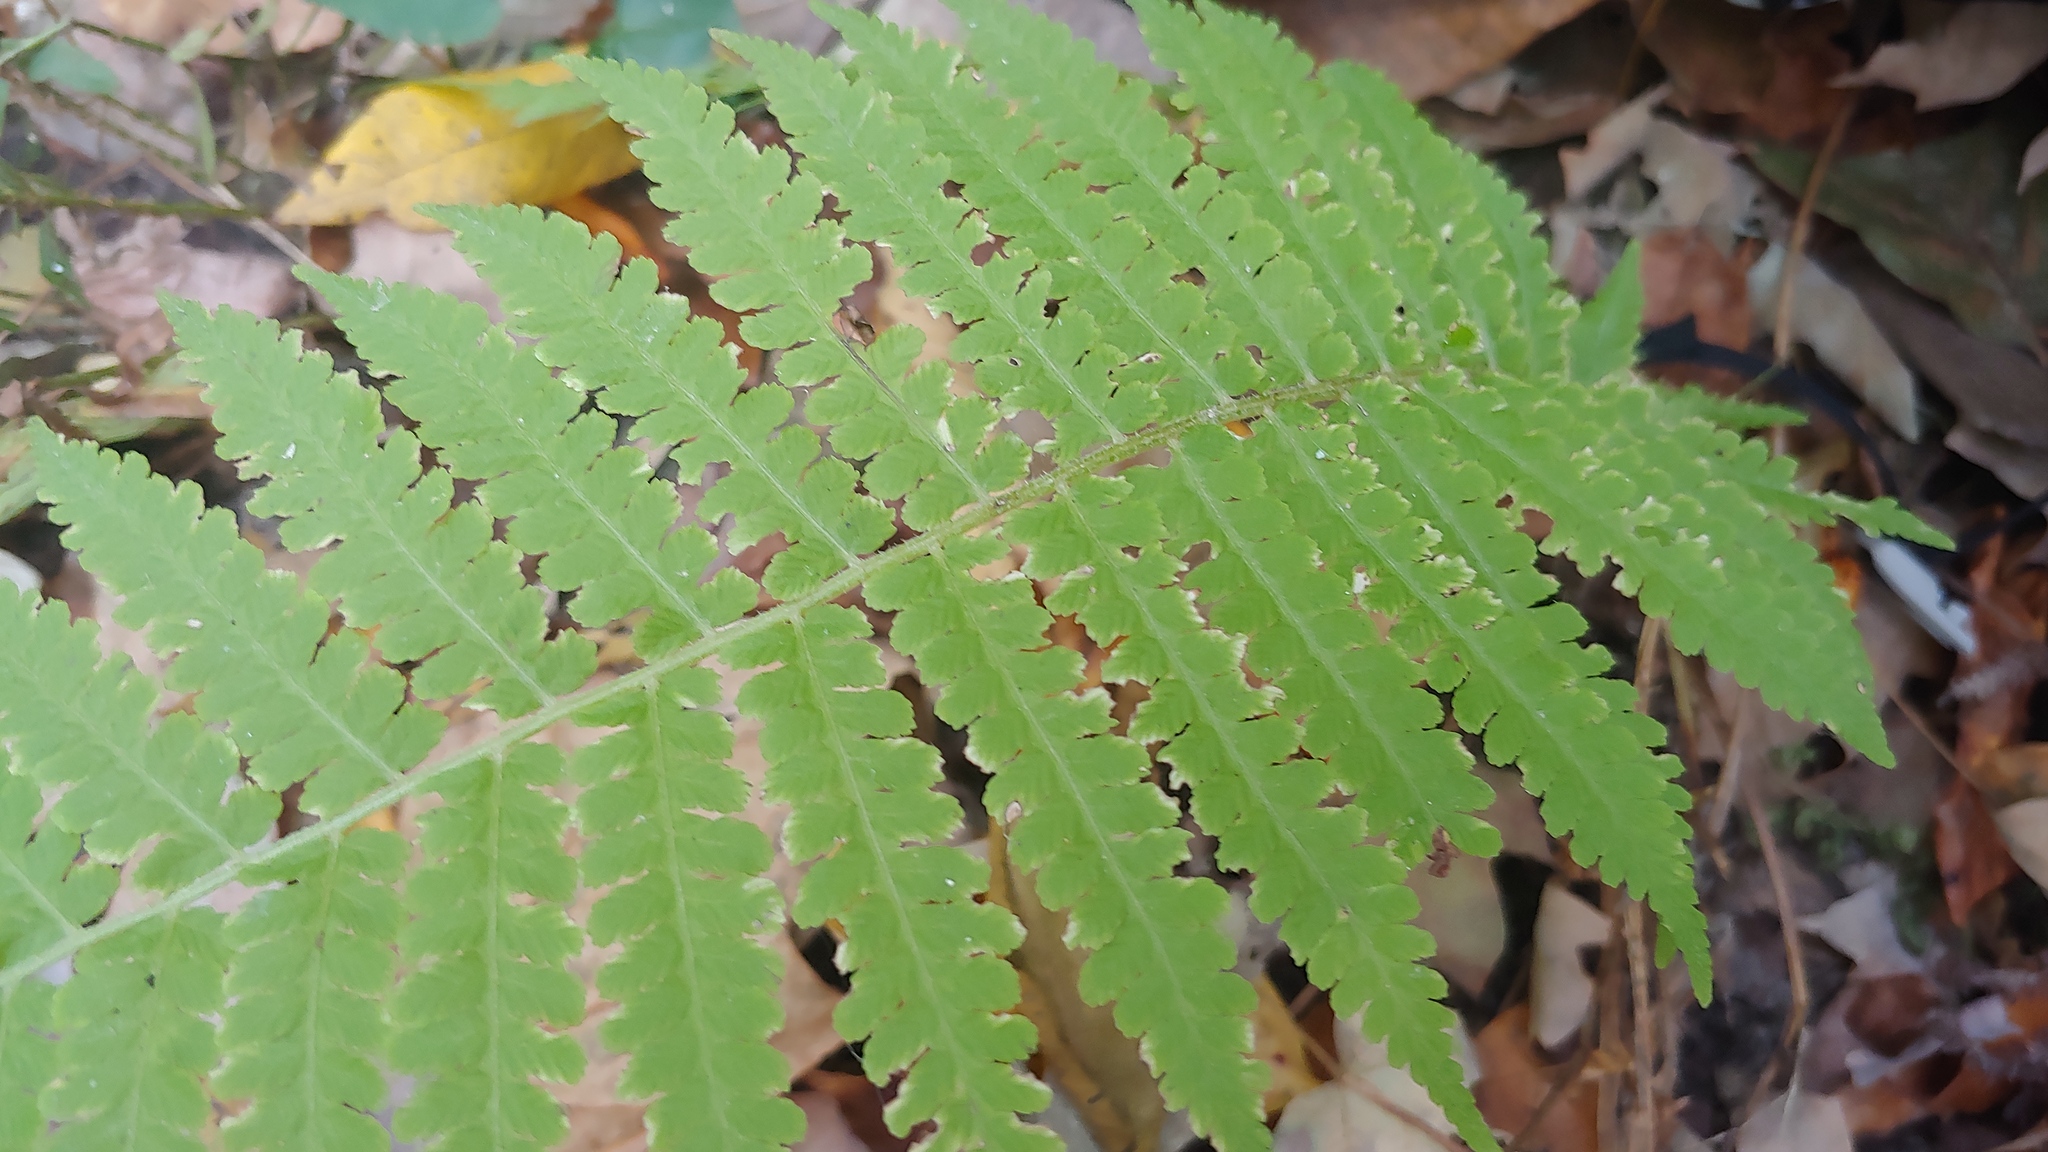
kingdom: Plantae
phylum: Tracheophyta
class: Polypodiopsida
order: Polypodiales
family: Athyriaceae
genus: Deparia
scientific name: Deparia acrostichoides
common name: Silver false spleenwort
